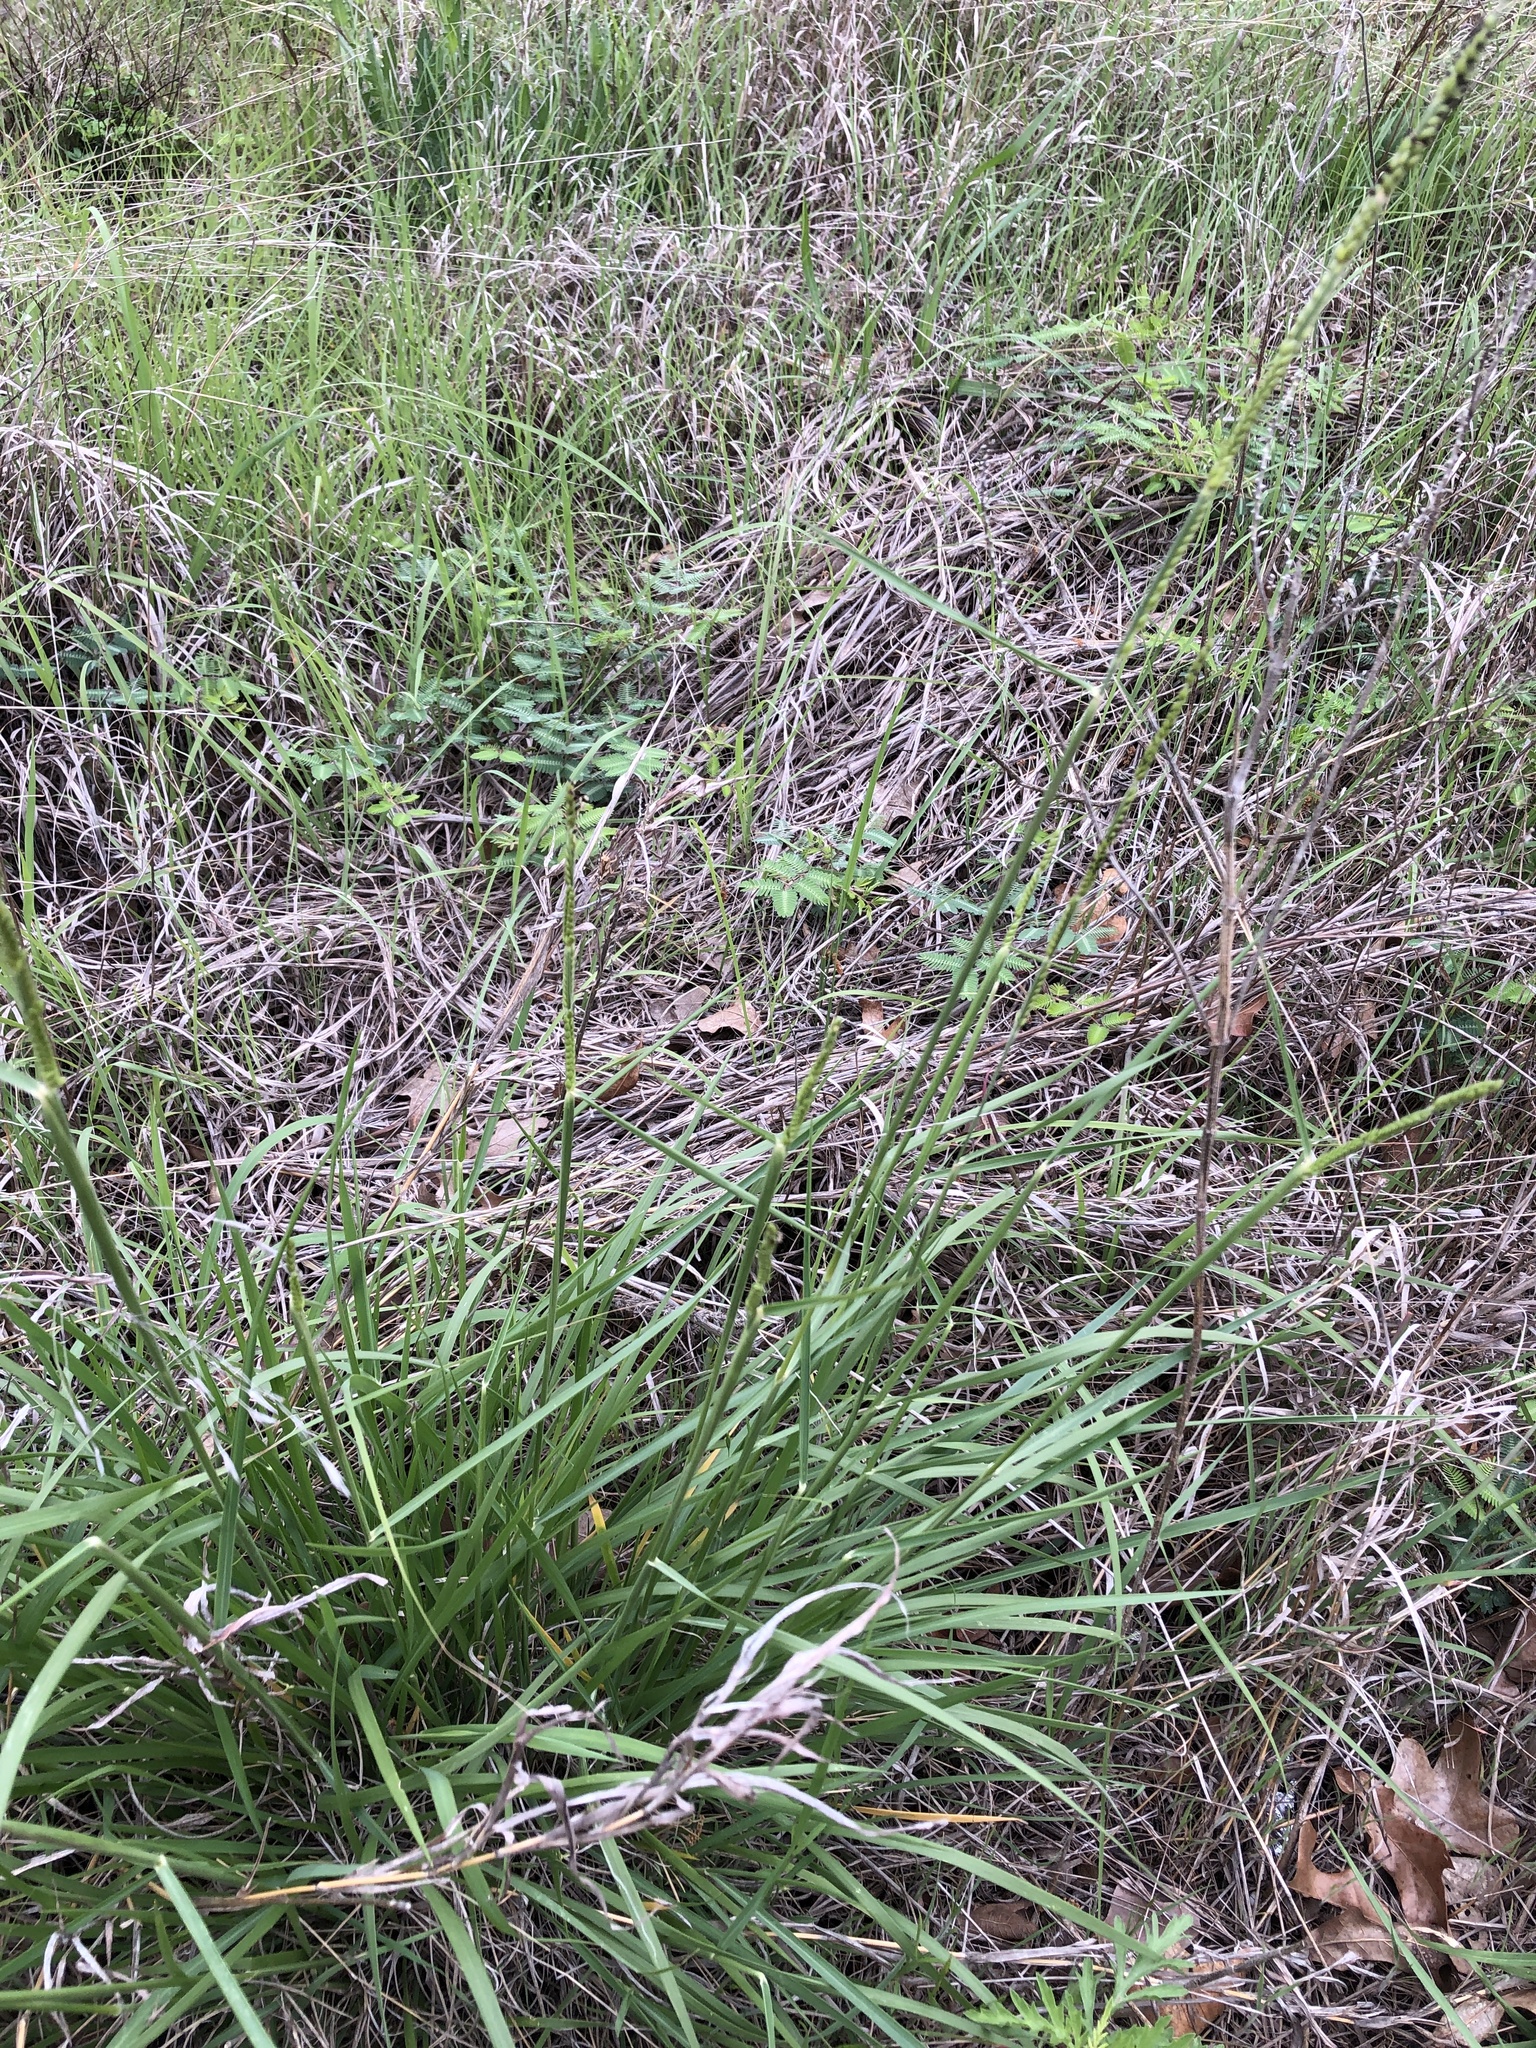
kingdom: Plantae
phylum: Tracheophyta
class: Liliopsida
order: Poales
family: Poaceae
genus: Eriochloa
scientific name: Eriochloa sericea
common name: Texas cup grass
